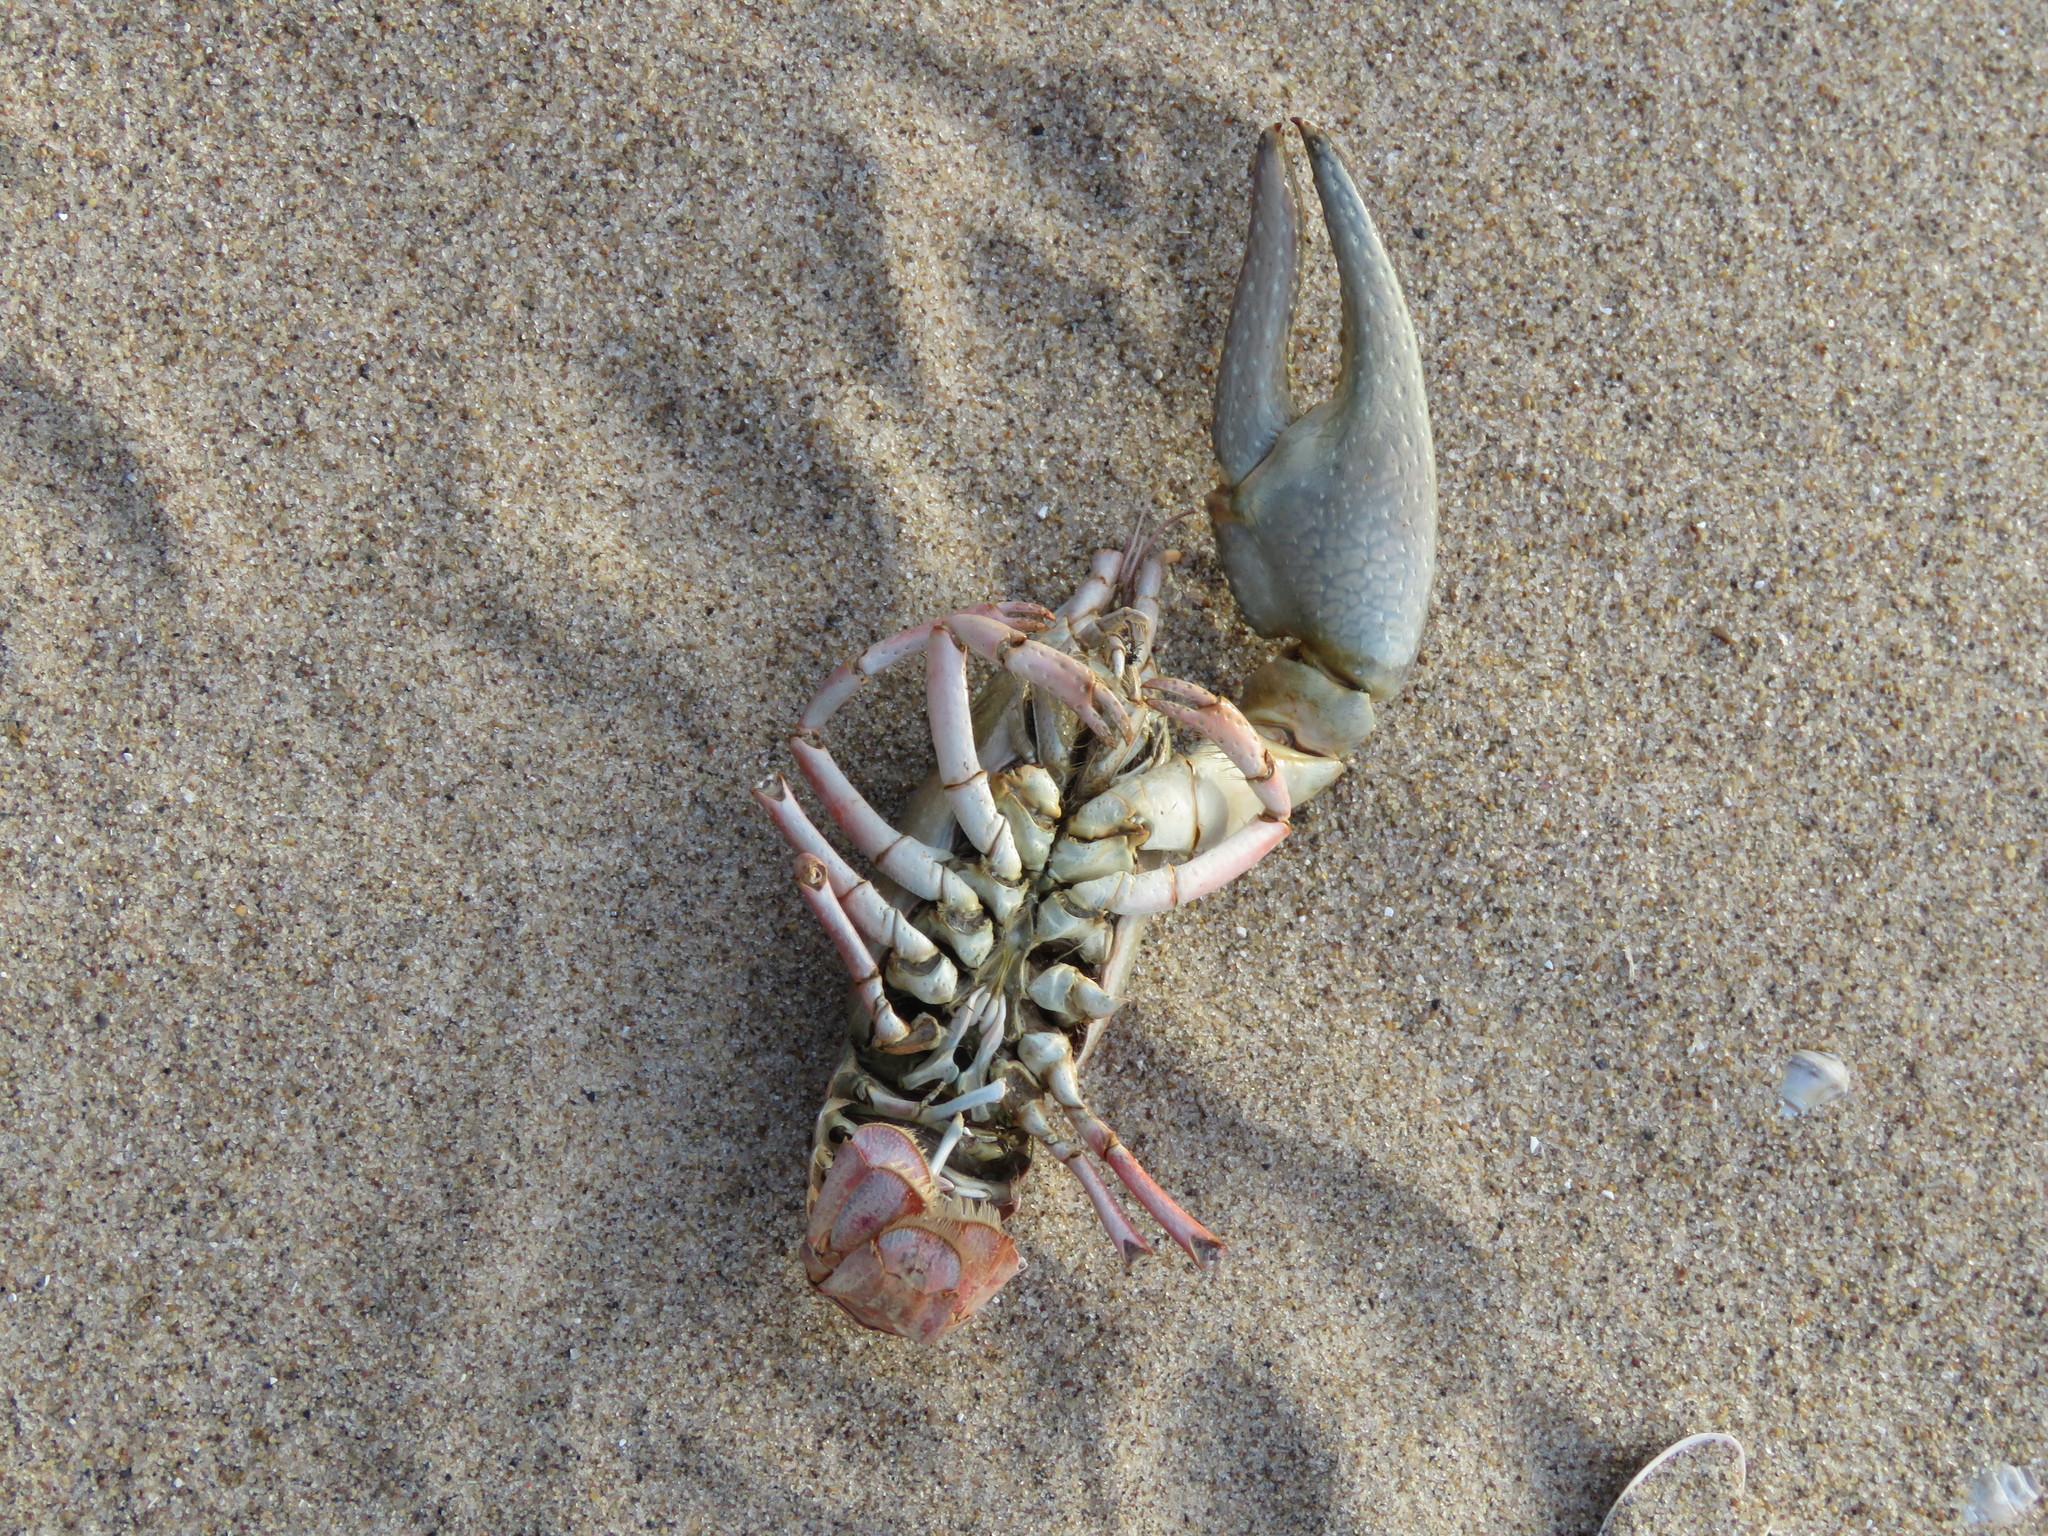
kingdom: Animalia
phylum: Arthropoda
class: Malacostraca
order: Decapoda
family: Cambaridae
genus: Faxonius
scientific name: Faxonius rusticus
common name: Rusty crayfish
